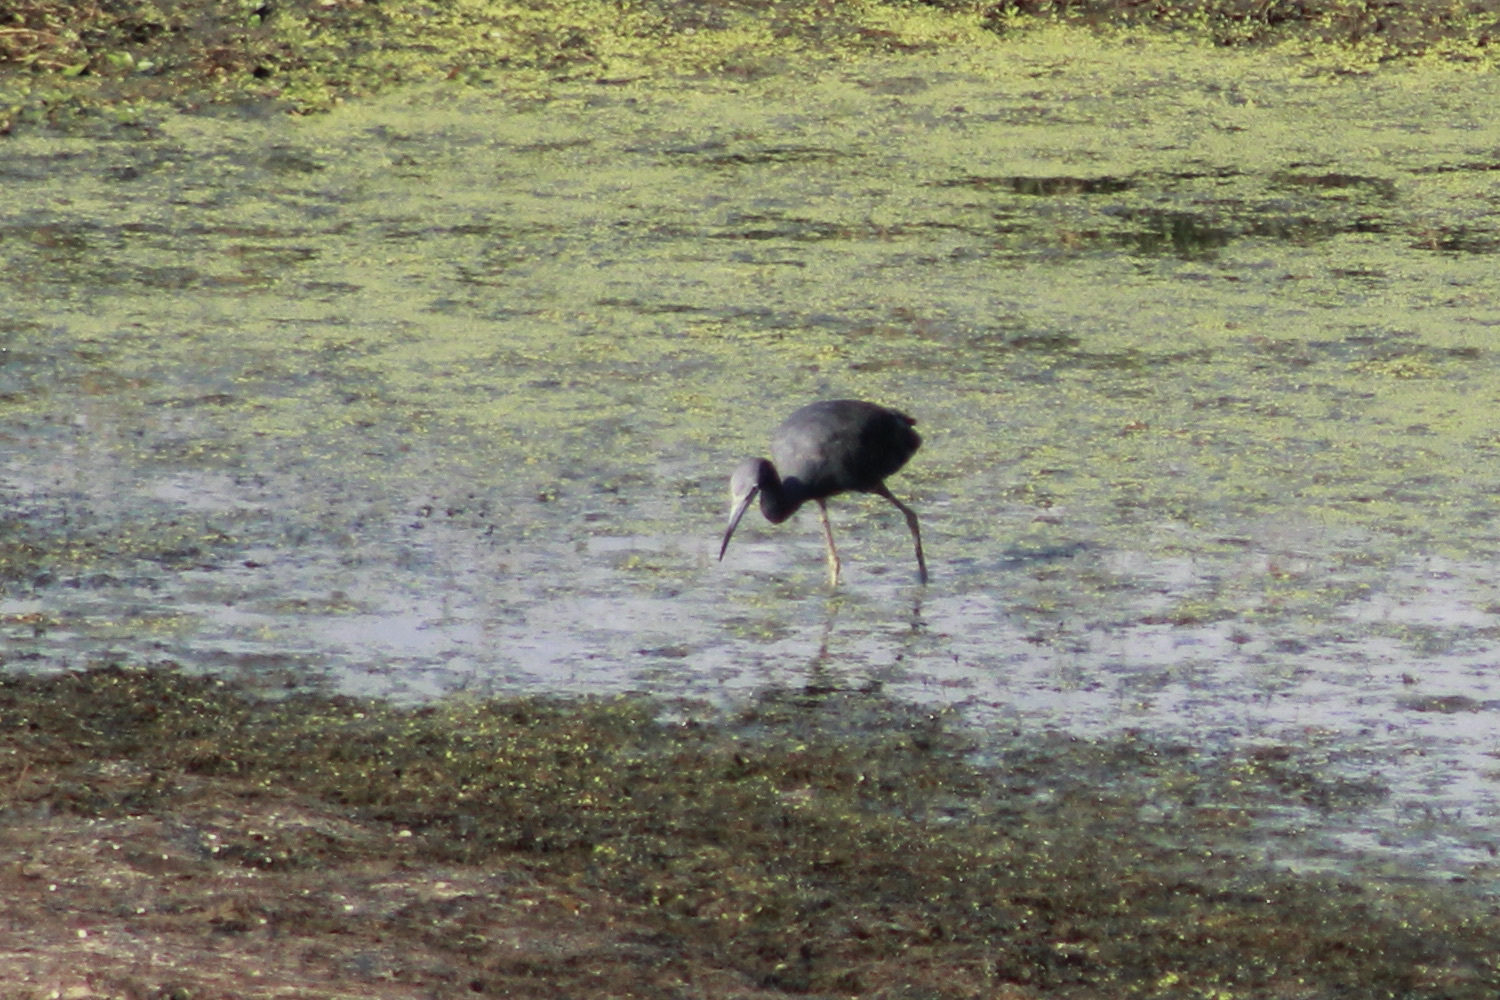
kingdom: Animalia
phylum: Chordata
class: Aves
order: Pelecaniformes
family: Ardeidae
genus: Egretta
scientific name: Egretta caerulea
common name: Little blue heron
